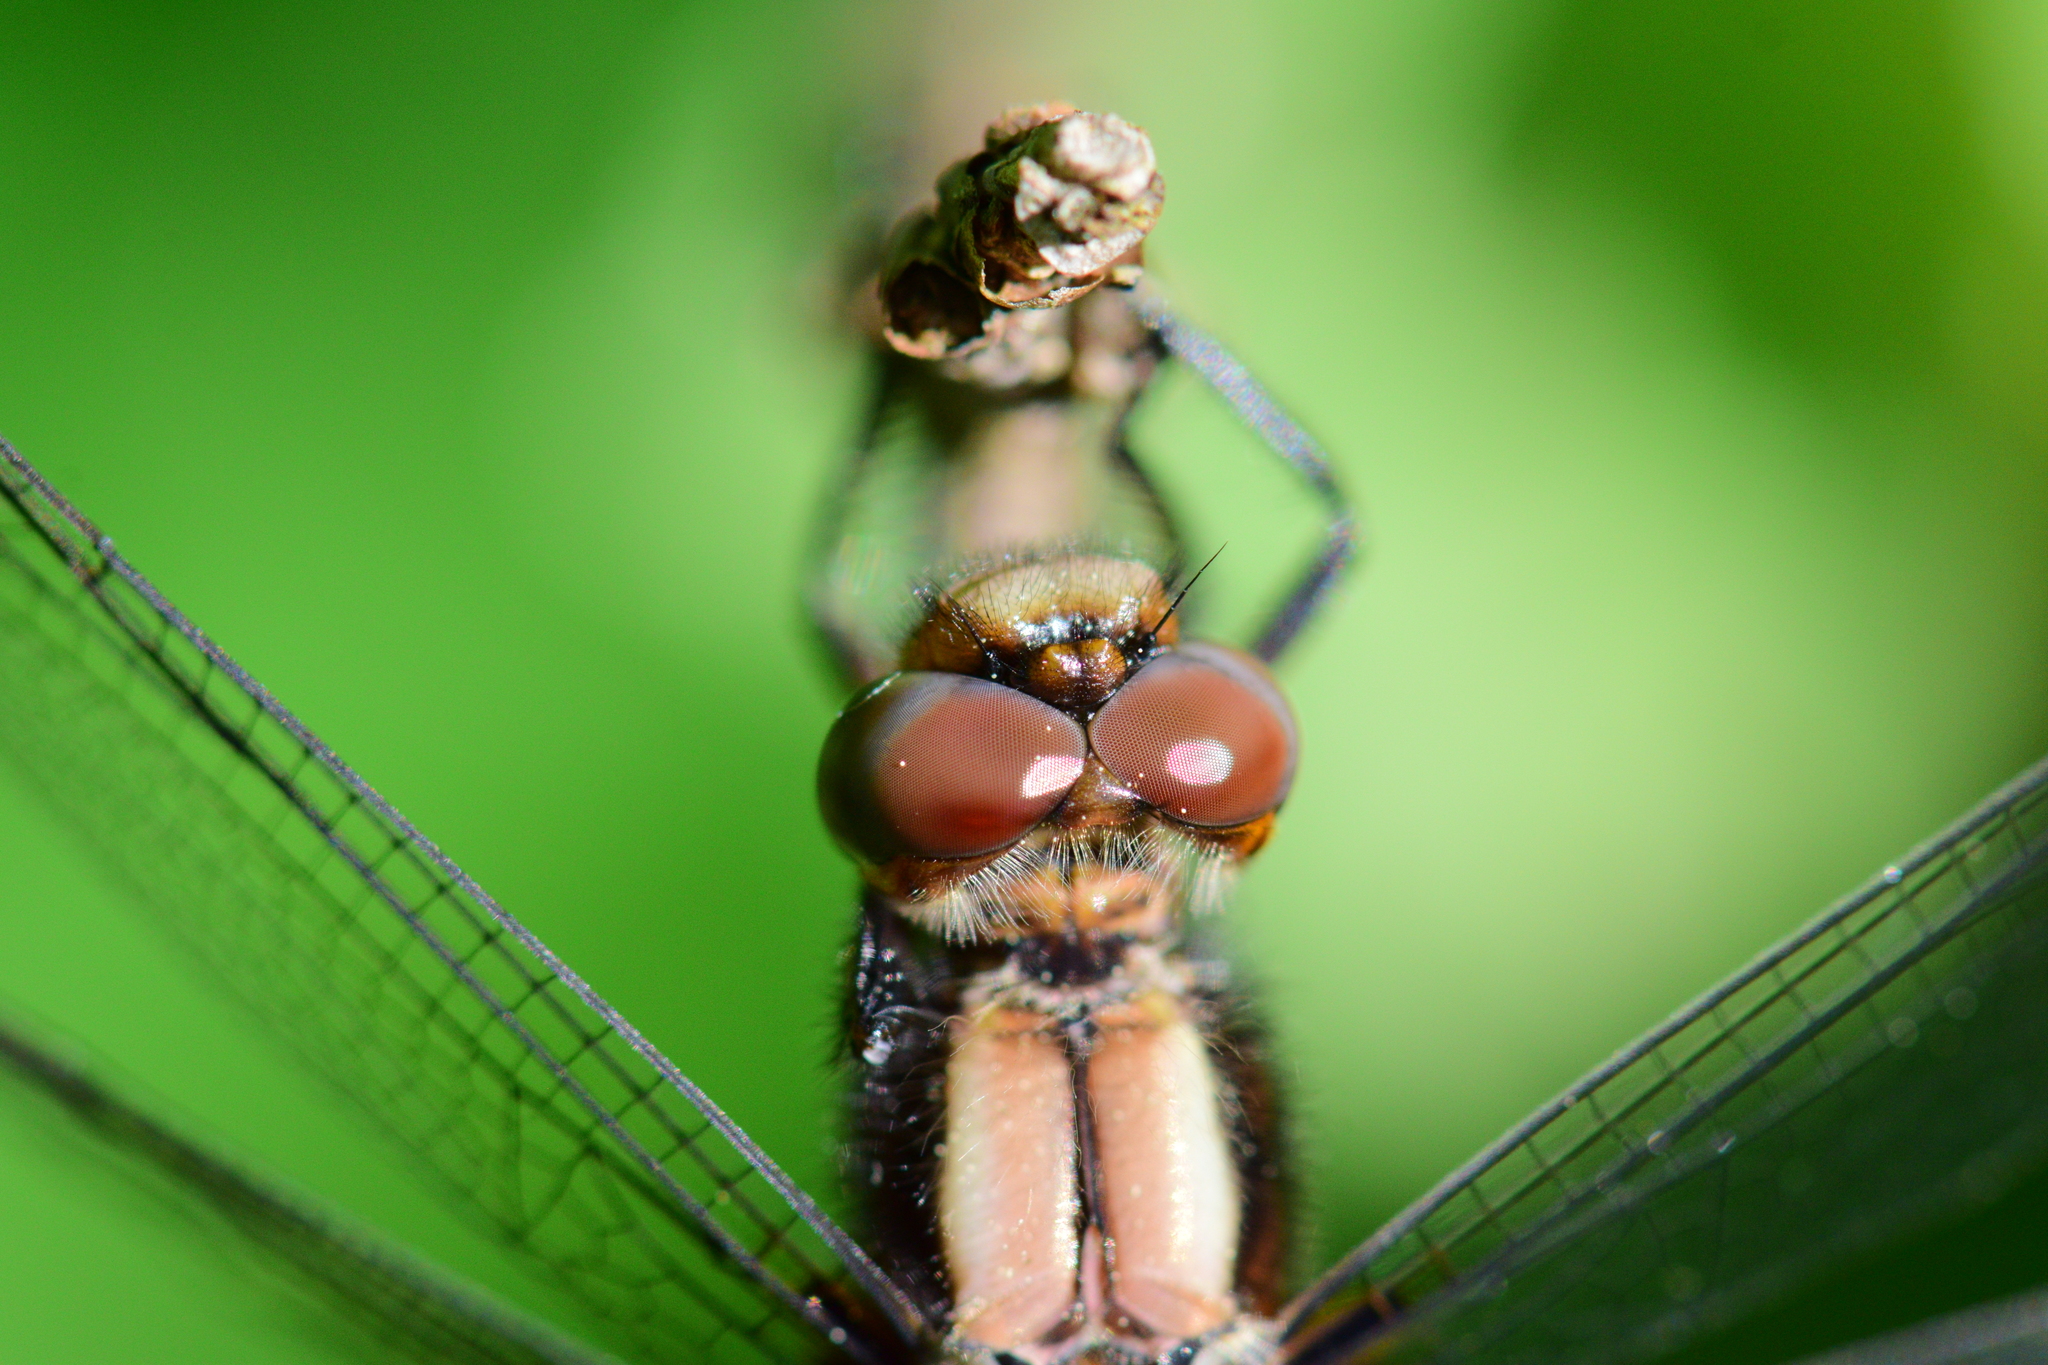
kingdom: Animalia
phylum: Arthropoda
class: Insecta
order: Odonata
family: Libellulidae
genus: Ladona
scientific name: Ladona julia
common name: Chalk-fronted corporal
